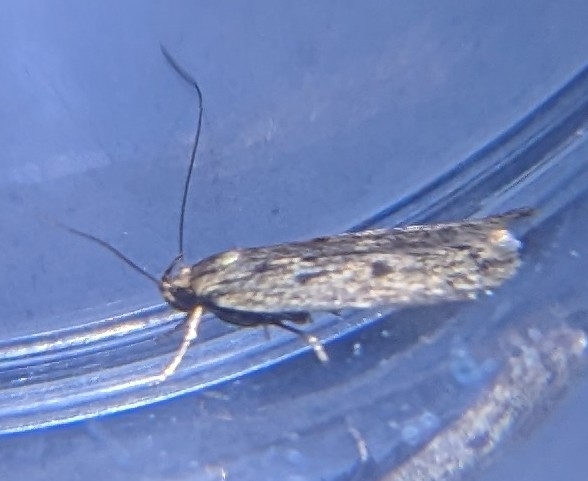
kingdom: Animalia
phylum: Arthropoda
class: Insecta
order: Lepidoptera
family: Oecophoridae
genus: Hofmannophila
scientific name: Hofmannophila pseudospretella
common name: Brown house moth
